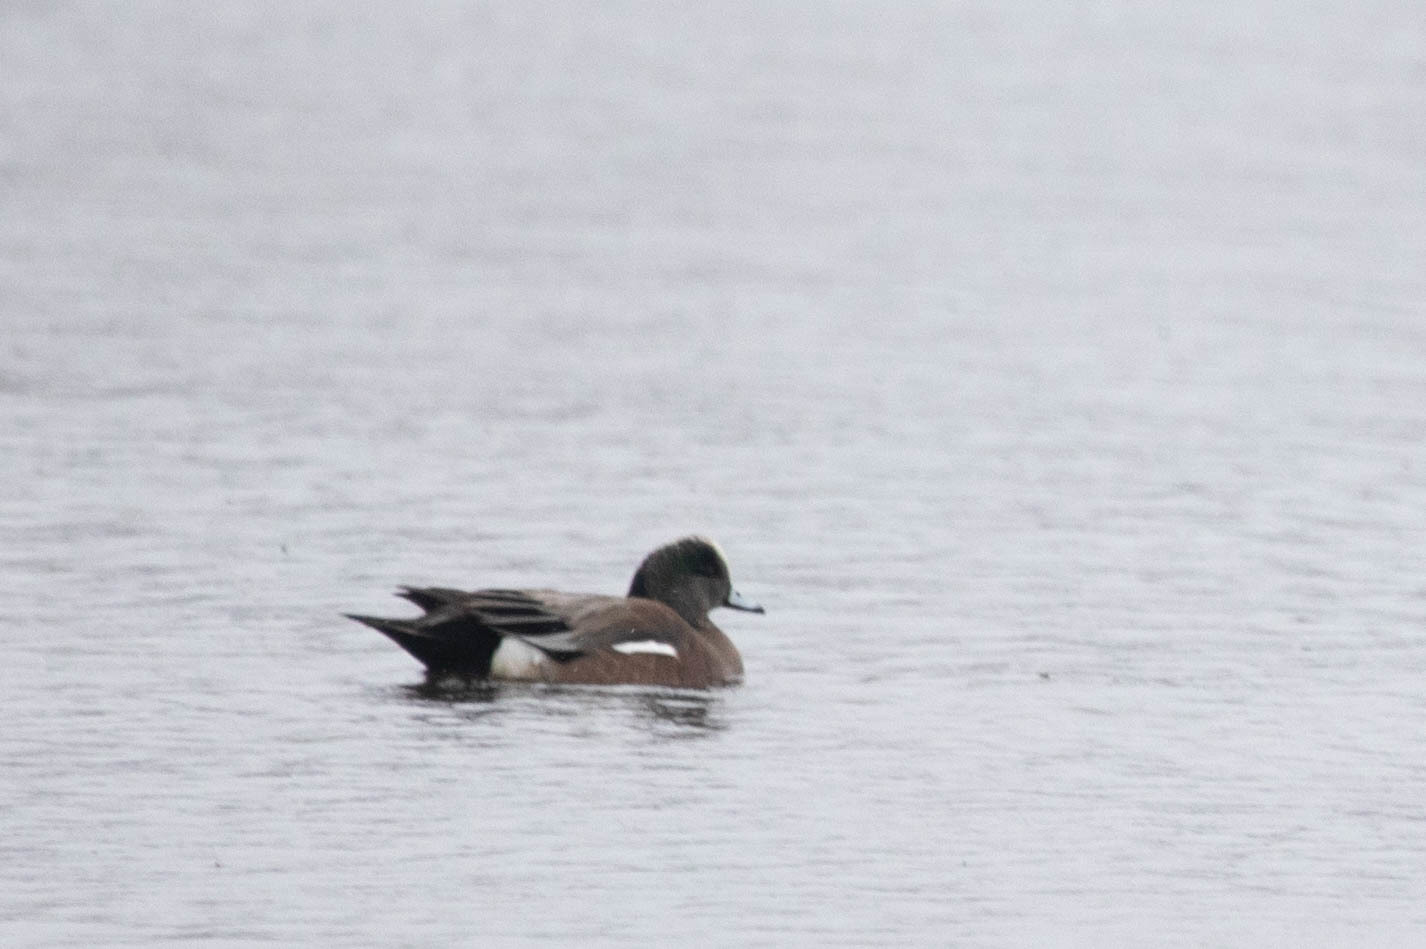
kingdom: Animalia
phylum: Chordata
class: Aves
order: Anseriformes
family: Anatidae
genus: Mareca
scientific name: Mareca americana
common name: American wigeon
